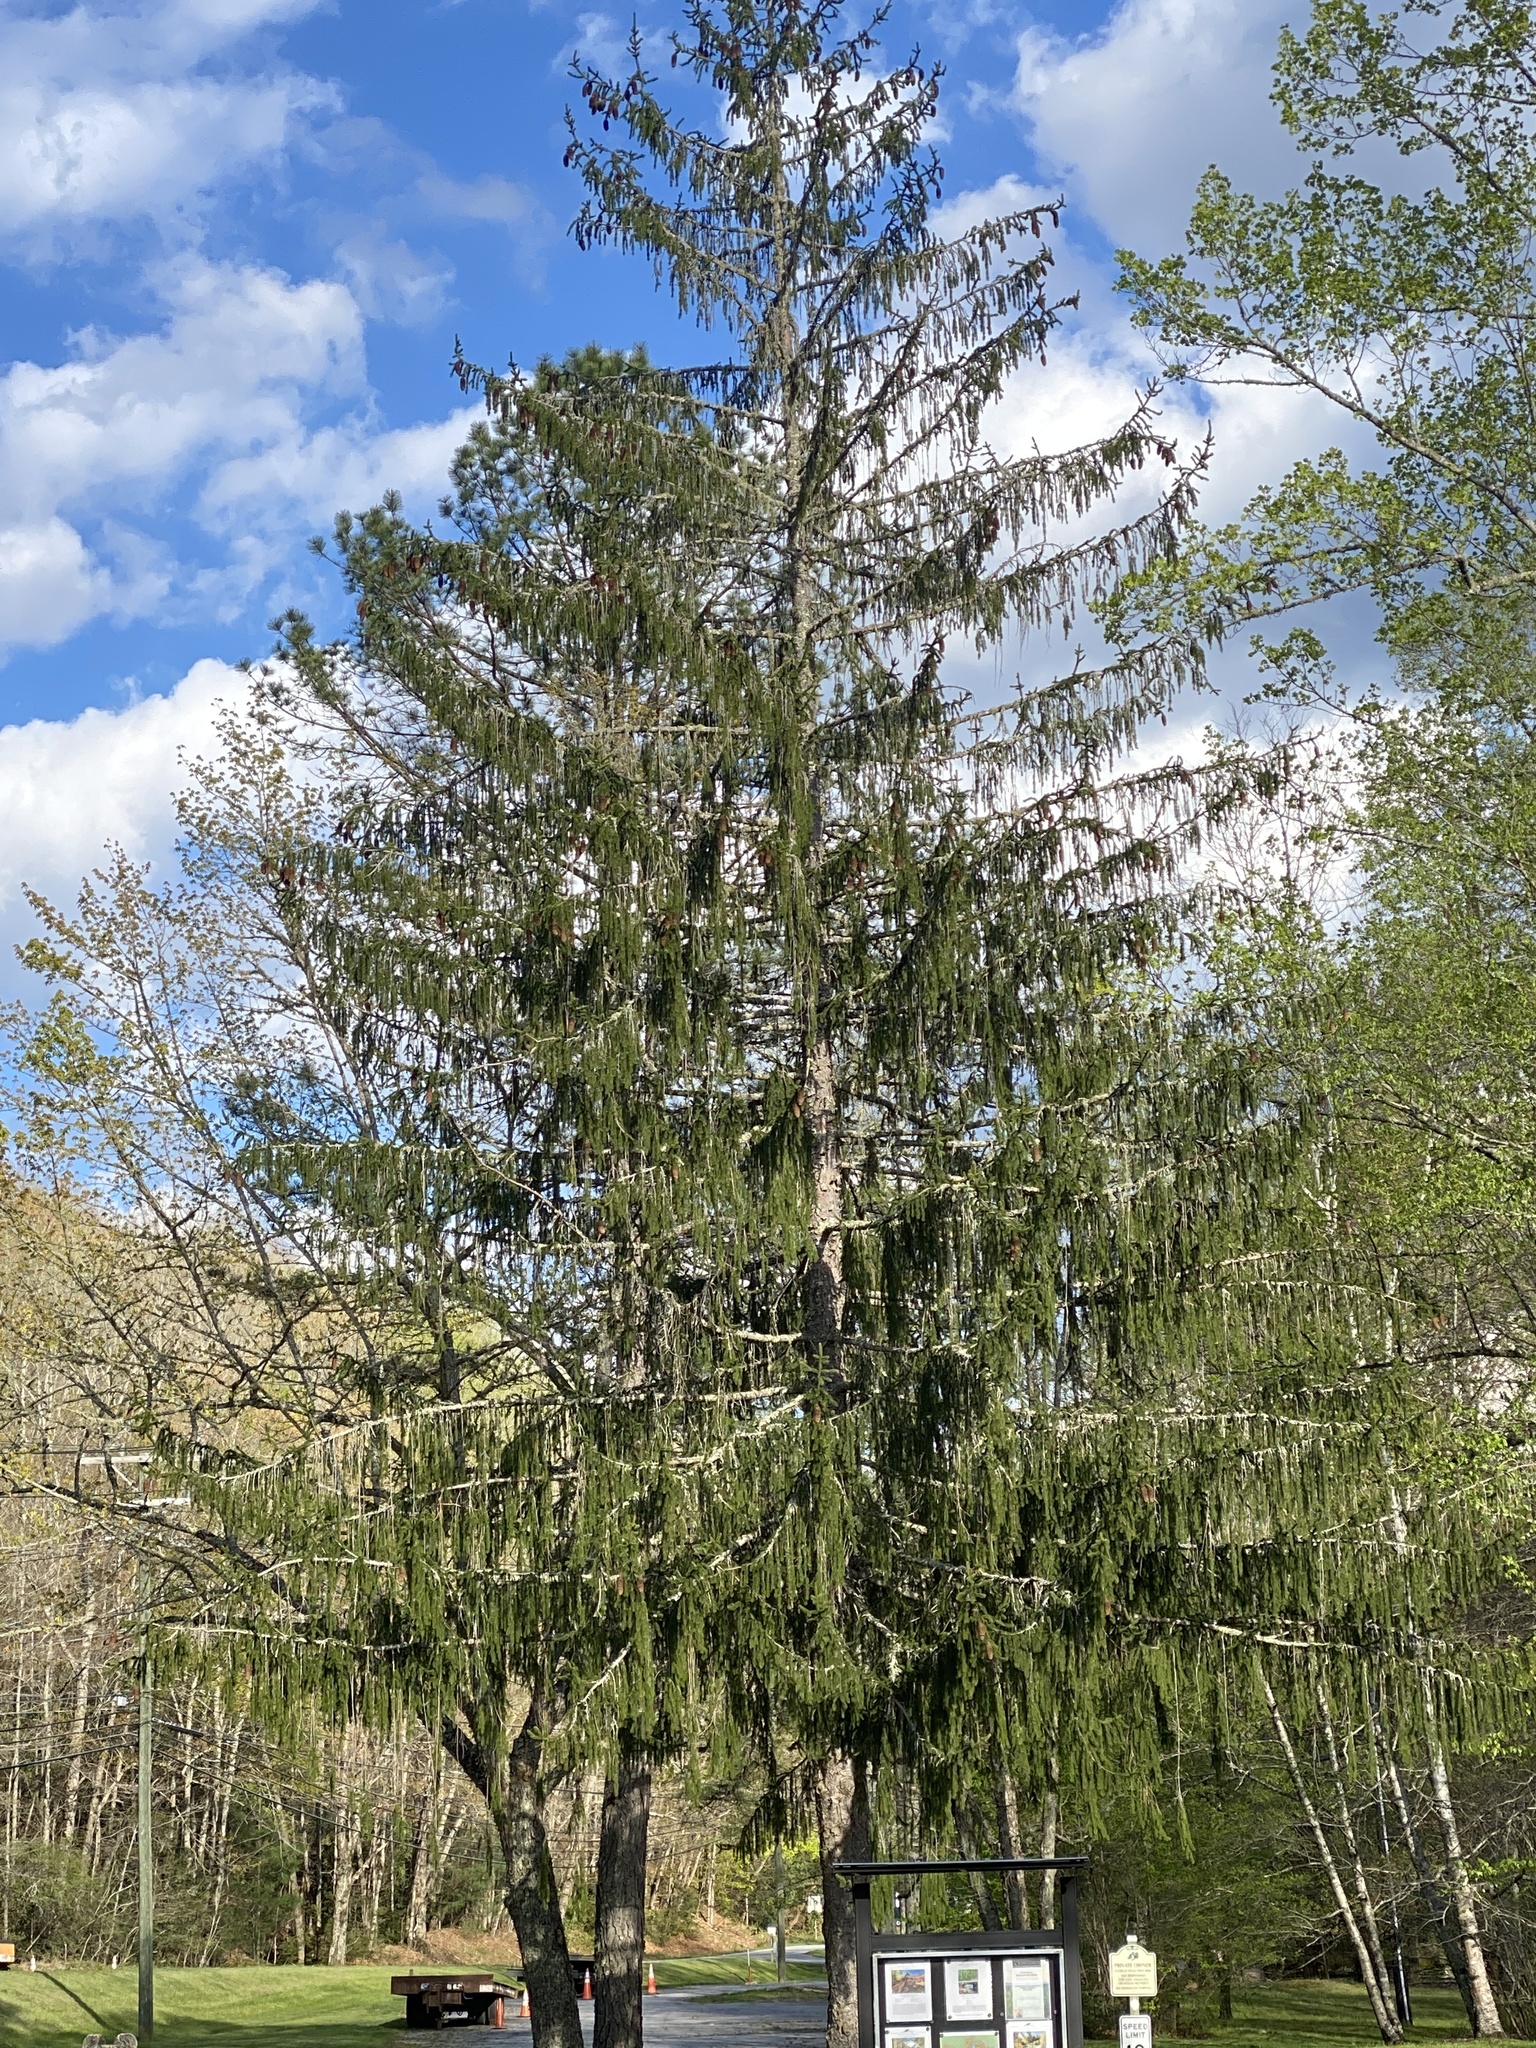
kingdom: Plantae
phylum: Tracheophyta
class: Pinopsida
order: Pinales
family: Pinaceae
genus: Picea
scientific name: Picea abies
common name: Norway spruce
